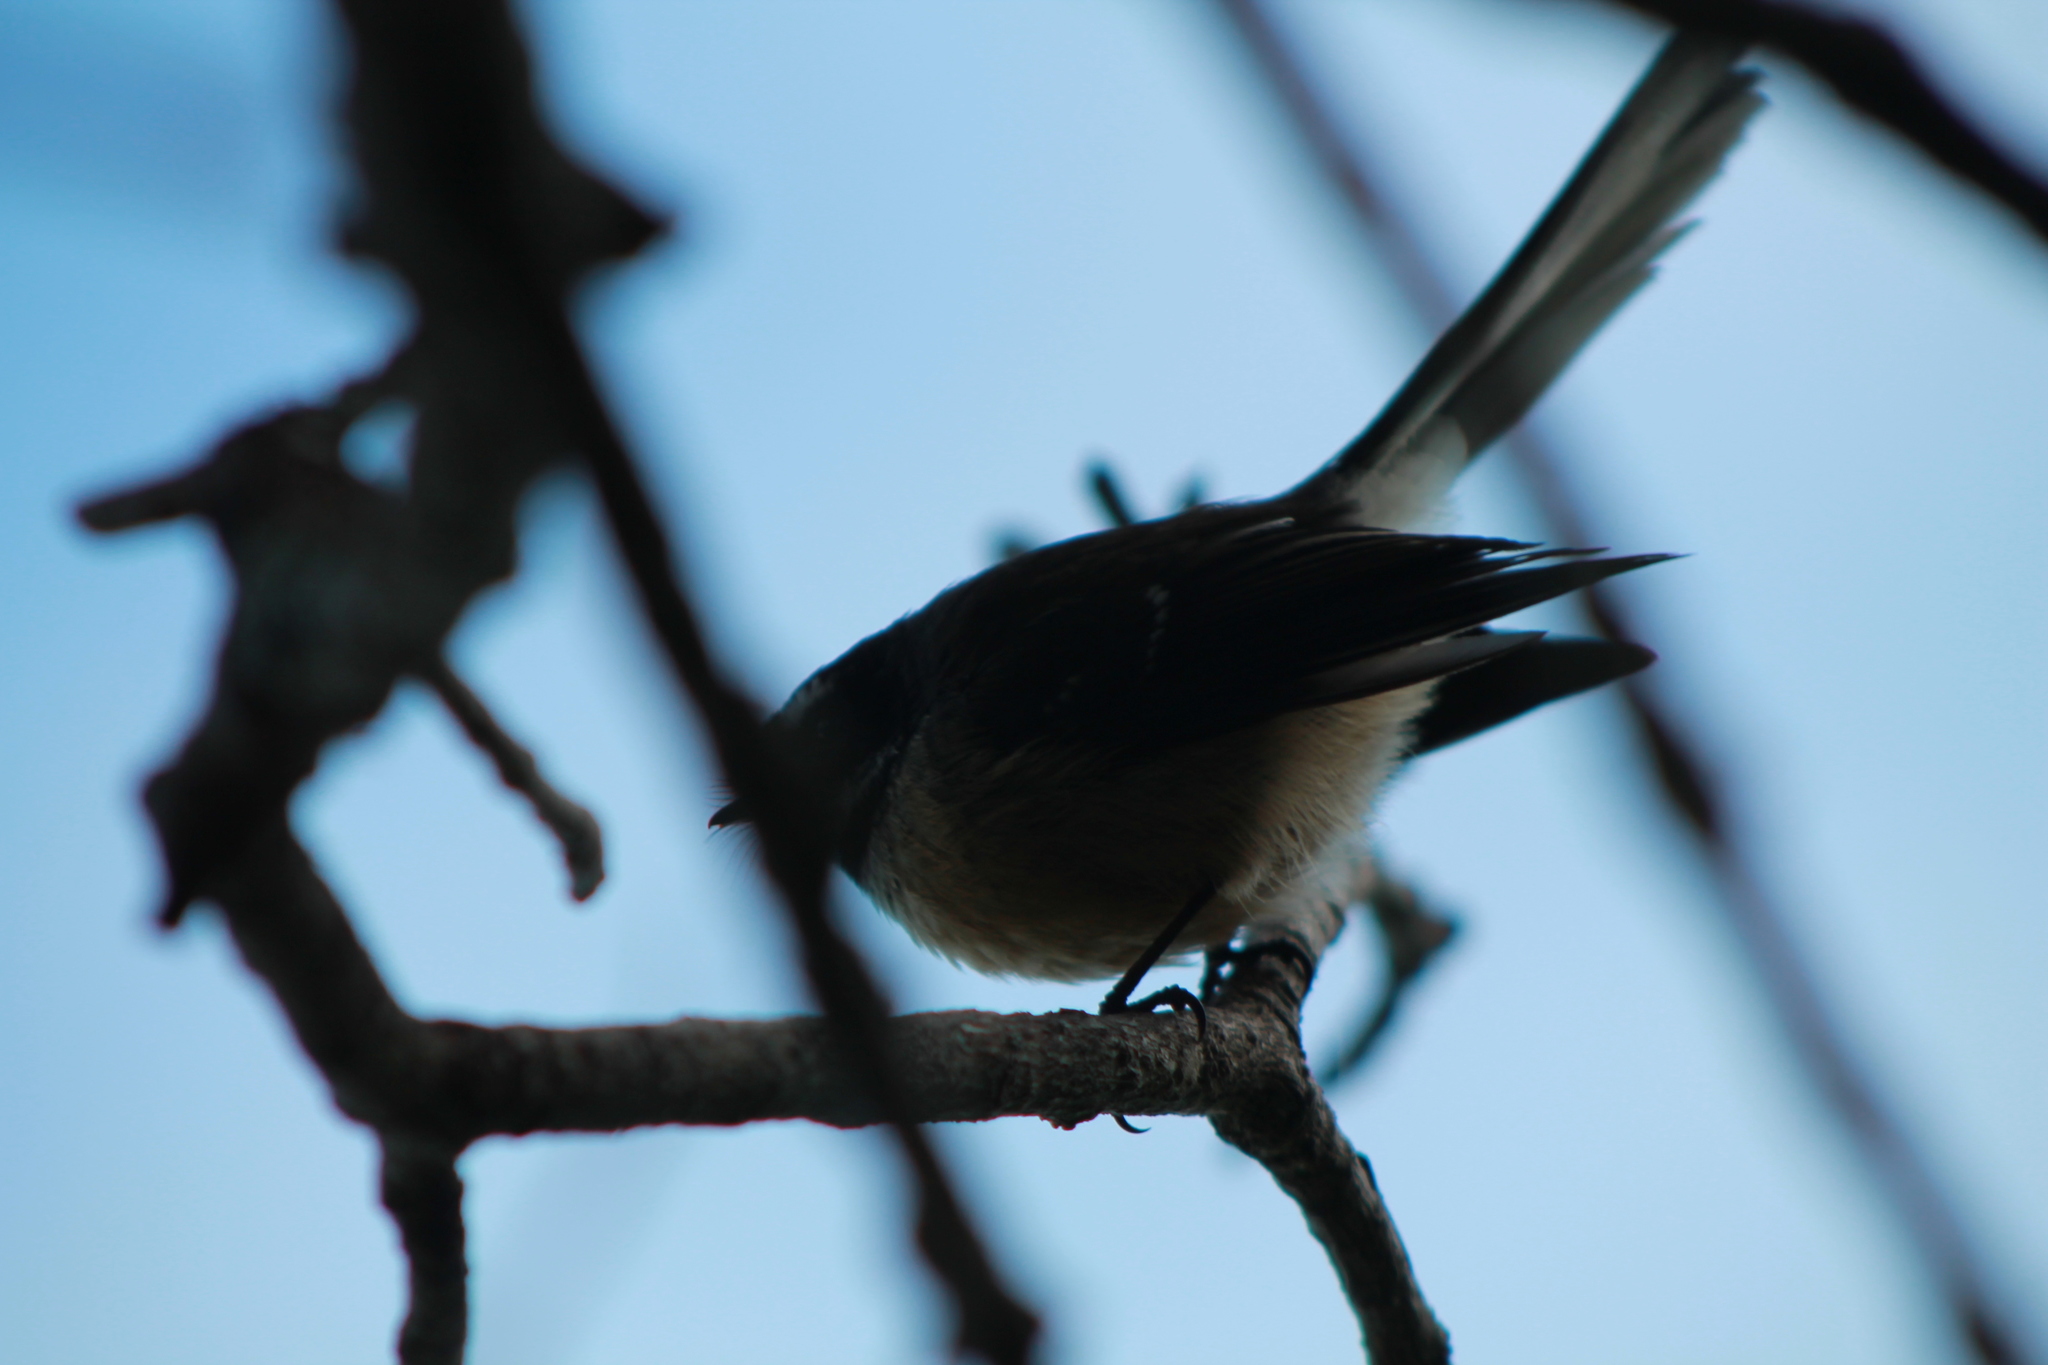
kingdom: Animalia
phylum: Chordata
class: Aves
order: Passeriformes
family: Rhipiduridae
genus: Rhipidura
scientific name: Rhipidura fuliginosa
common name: New zealand fantail
